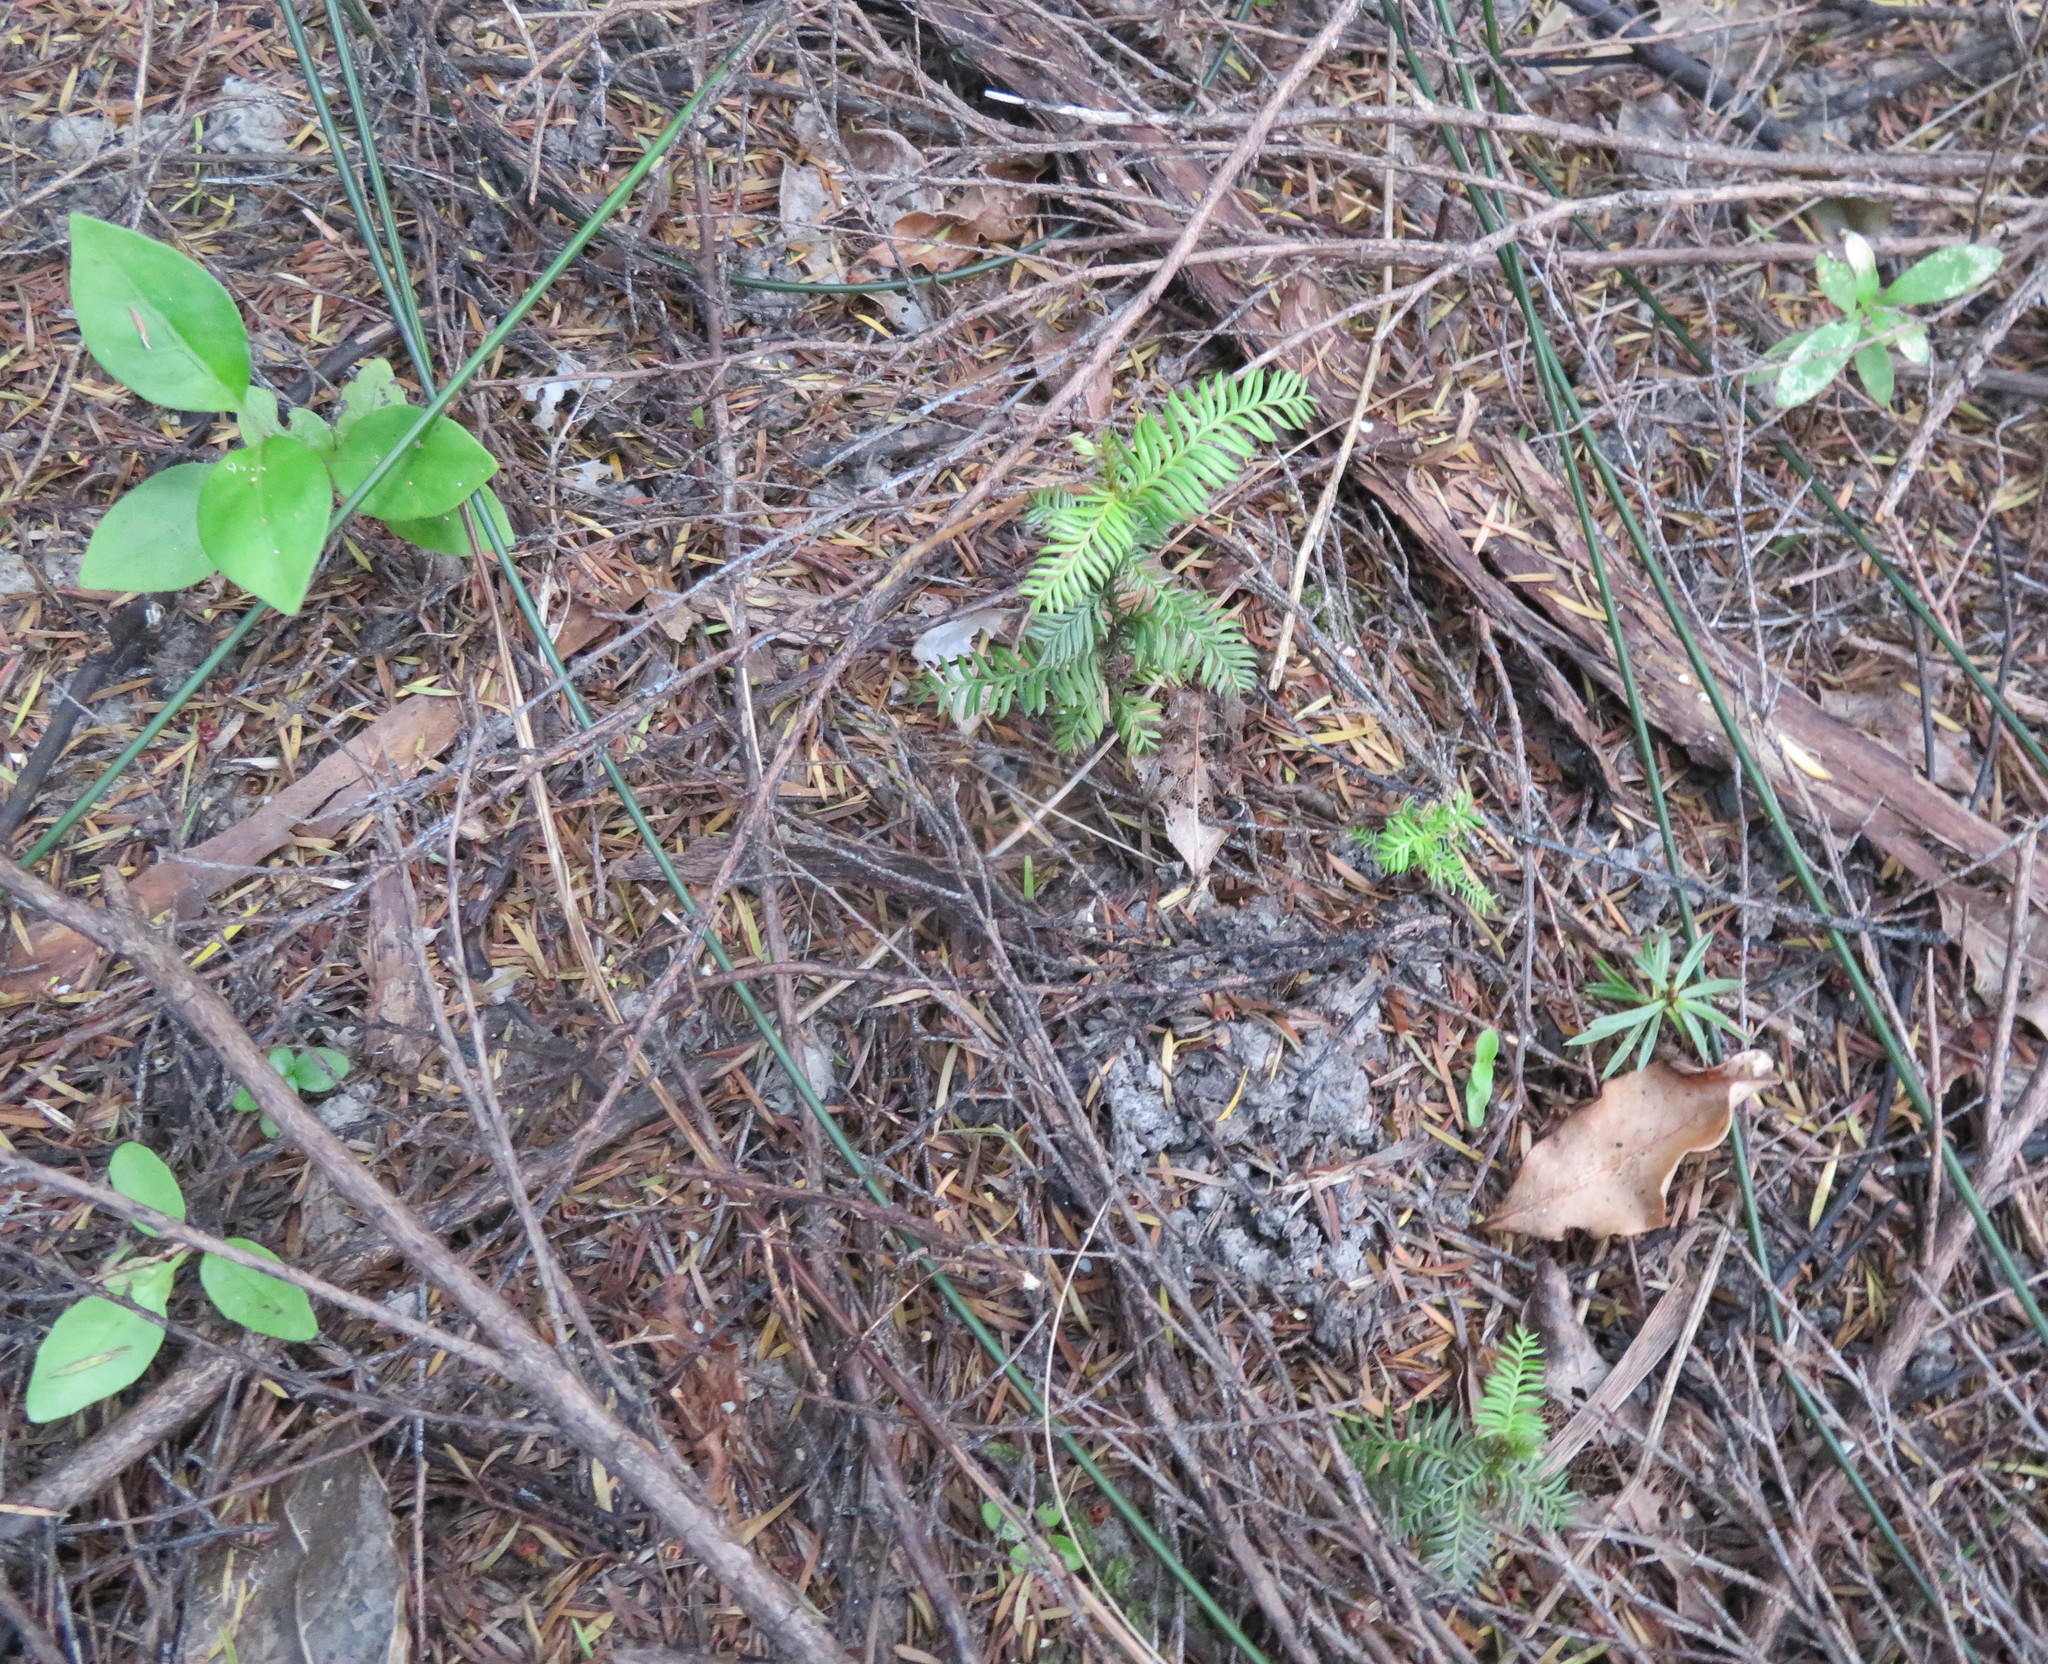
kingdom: Plantae
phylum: Tracheophyta
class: Pinopsida
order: Pinales
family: Podocarpaceae
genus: Podocarpus
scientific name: Podocarpus totara
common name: Totara
